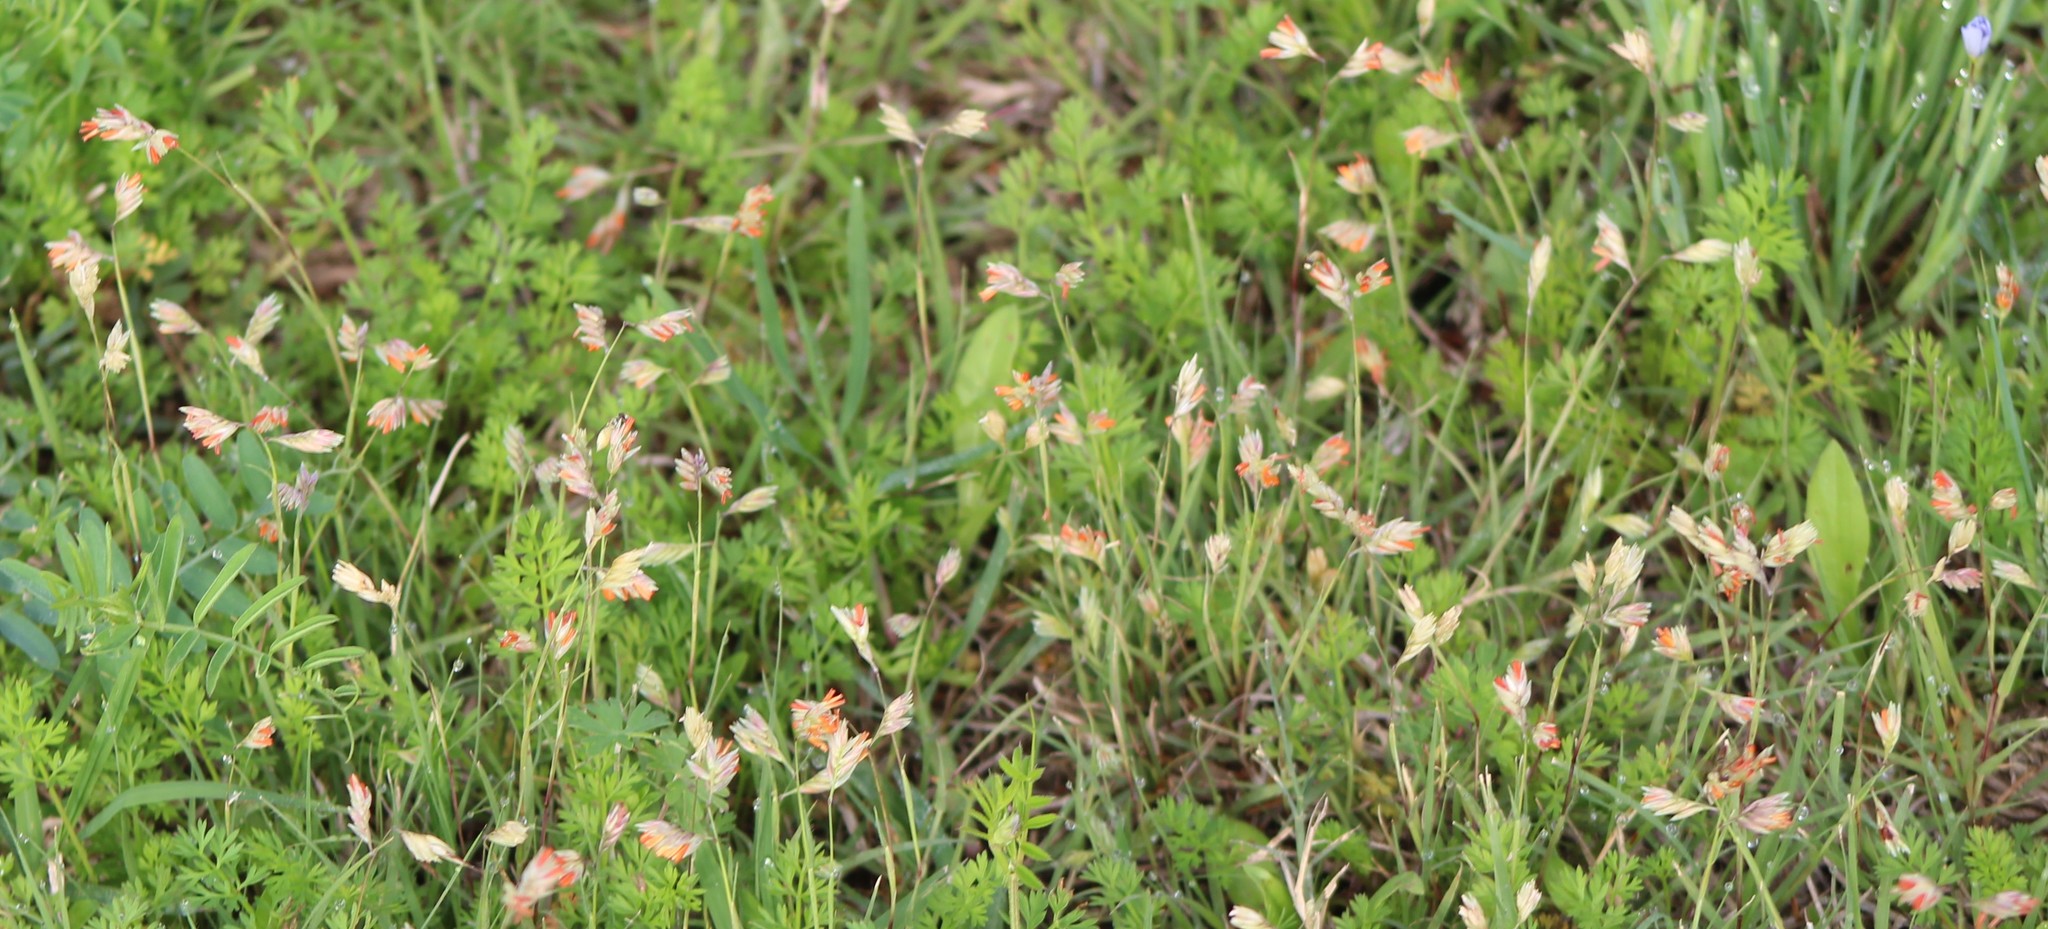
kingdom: Plantae
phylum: Tracheophyta
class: Liliopsida
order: Poales
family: Poaceae
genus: Bouteloua
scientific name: Bouteloua dactyloides
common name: Buffalo grass
